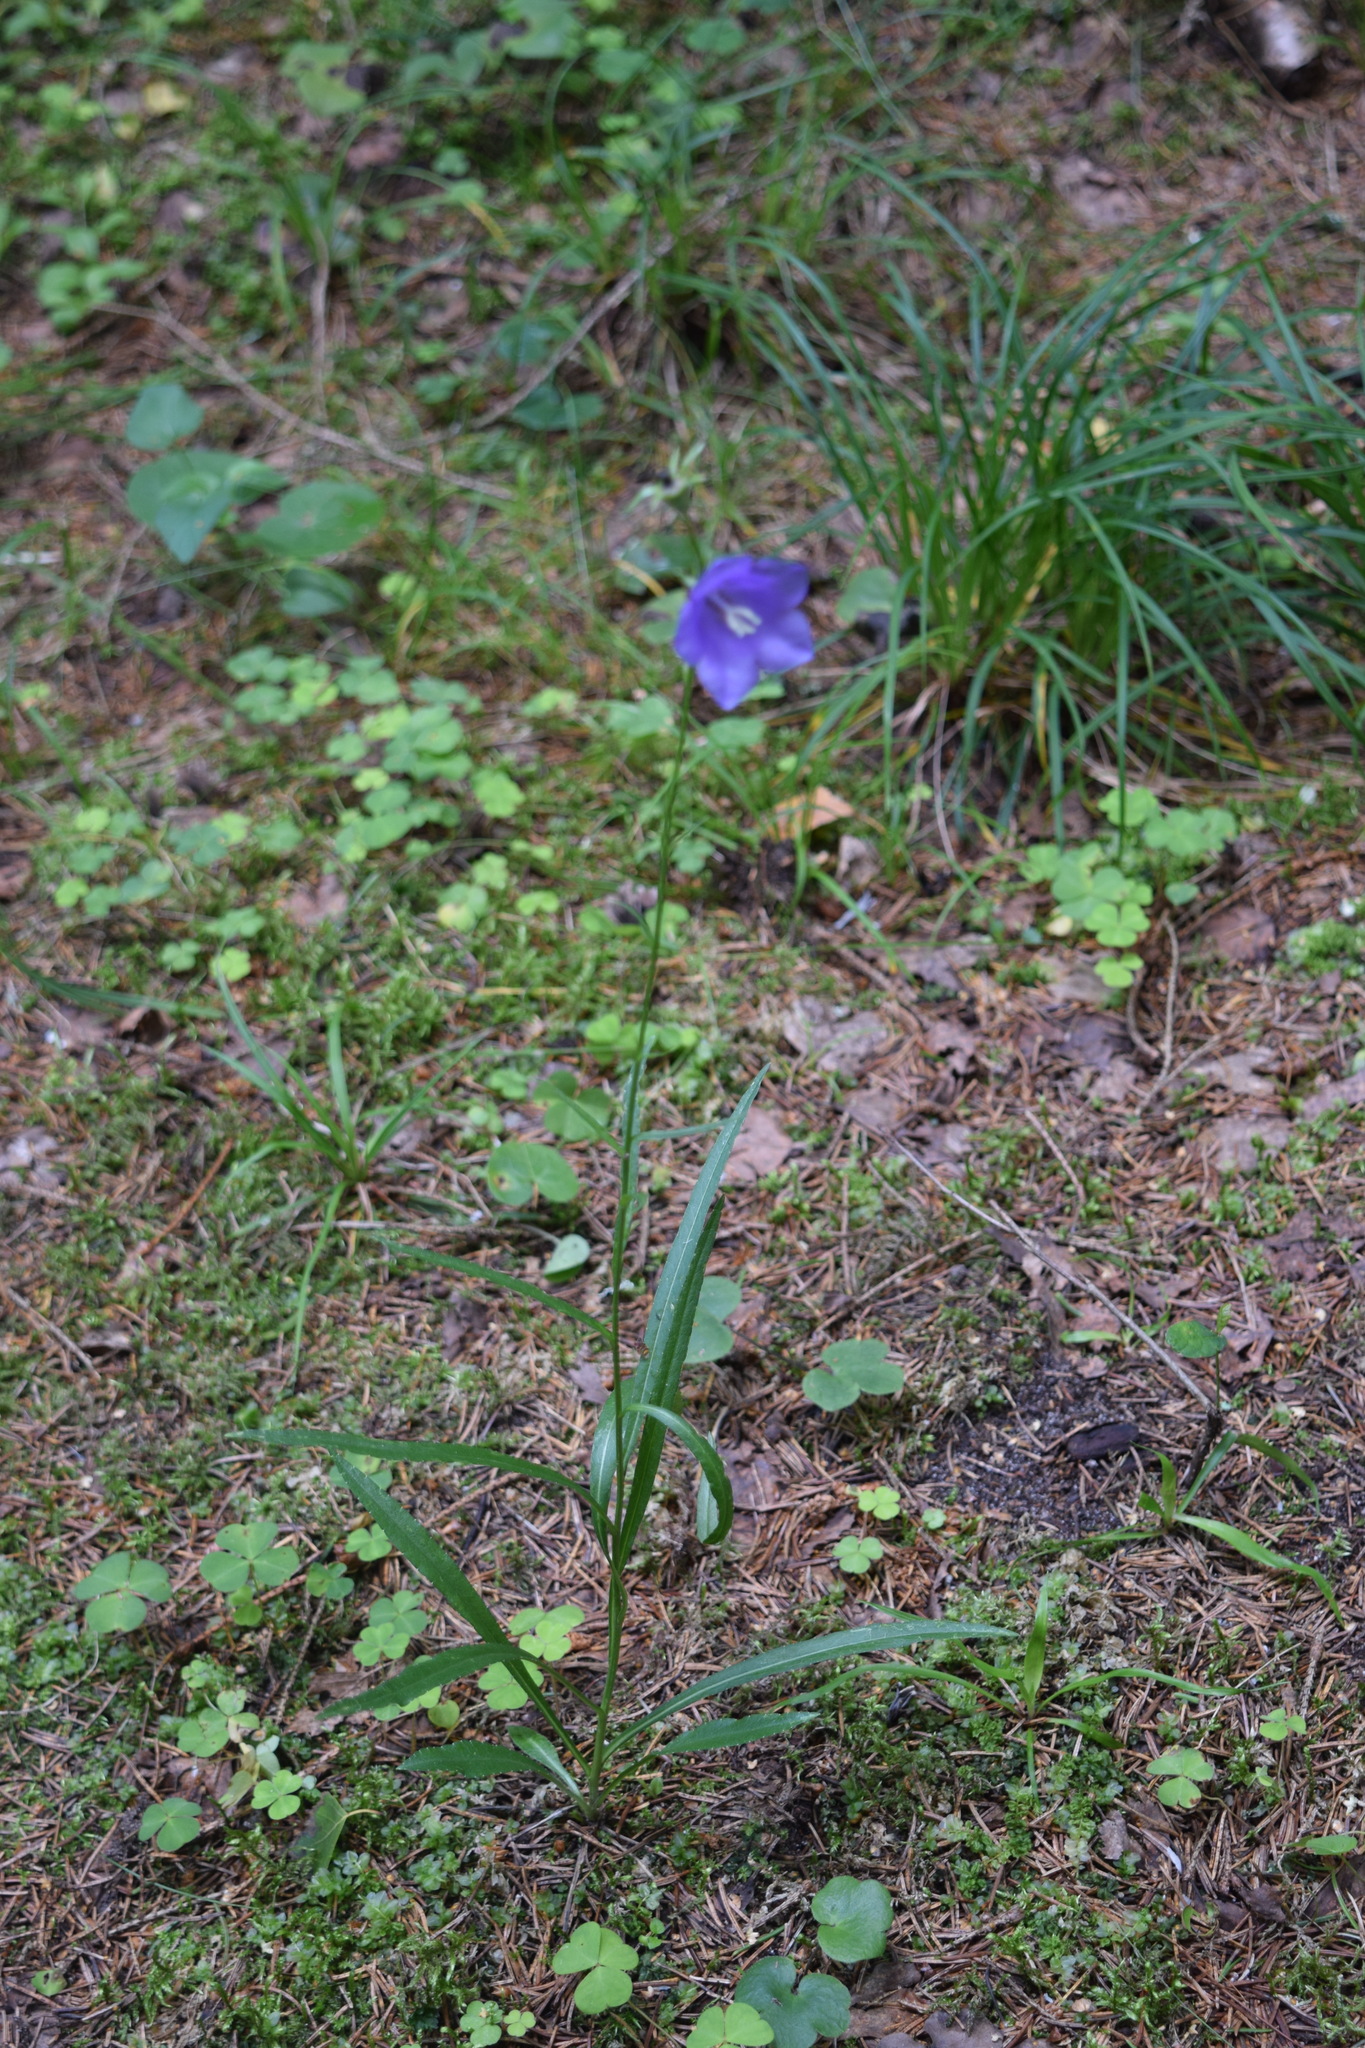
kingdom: Plantae
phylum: Tracheophyta
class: Magnoliopsida
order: Asterales
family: Campanulaceae
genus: Campanula
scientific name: Campanula persicifolia
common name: Peach-leaved bellflower
